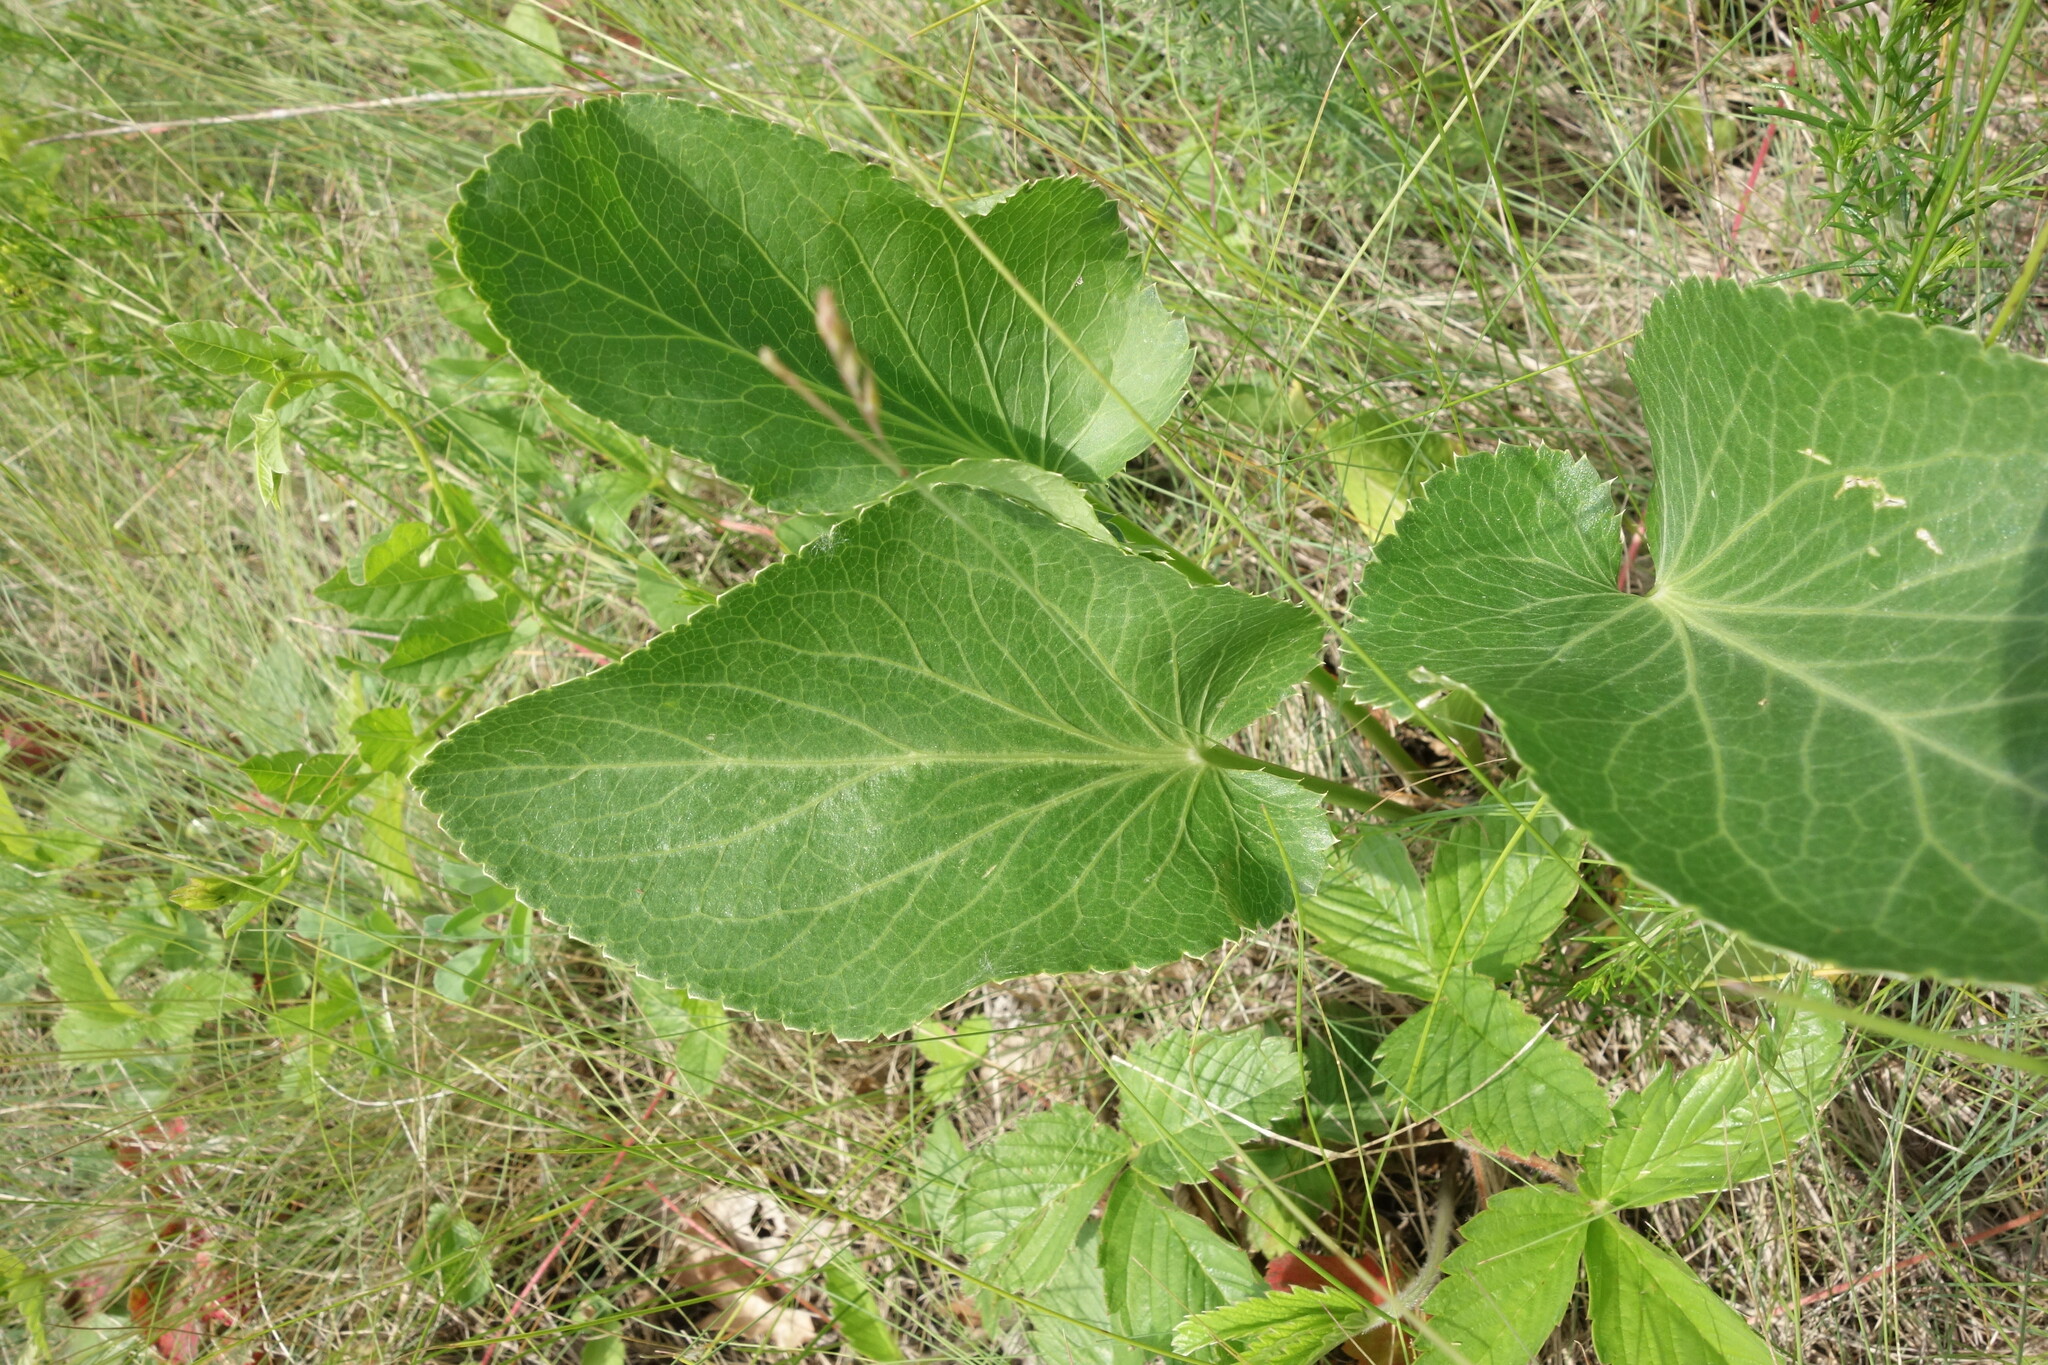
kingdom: Plantae
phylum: Tracheophyta
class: Magnoliopsida
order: Apiales
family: Apiaceae
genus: Eryngium
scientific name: Eryngium planum
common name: Blue eryngo
